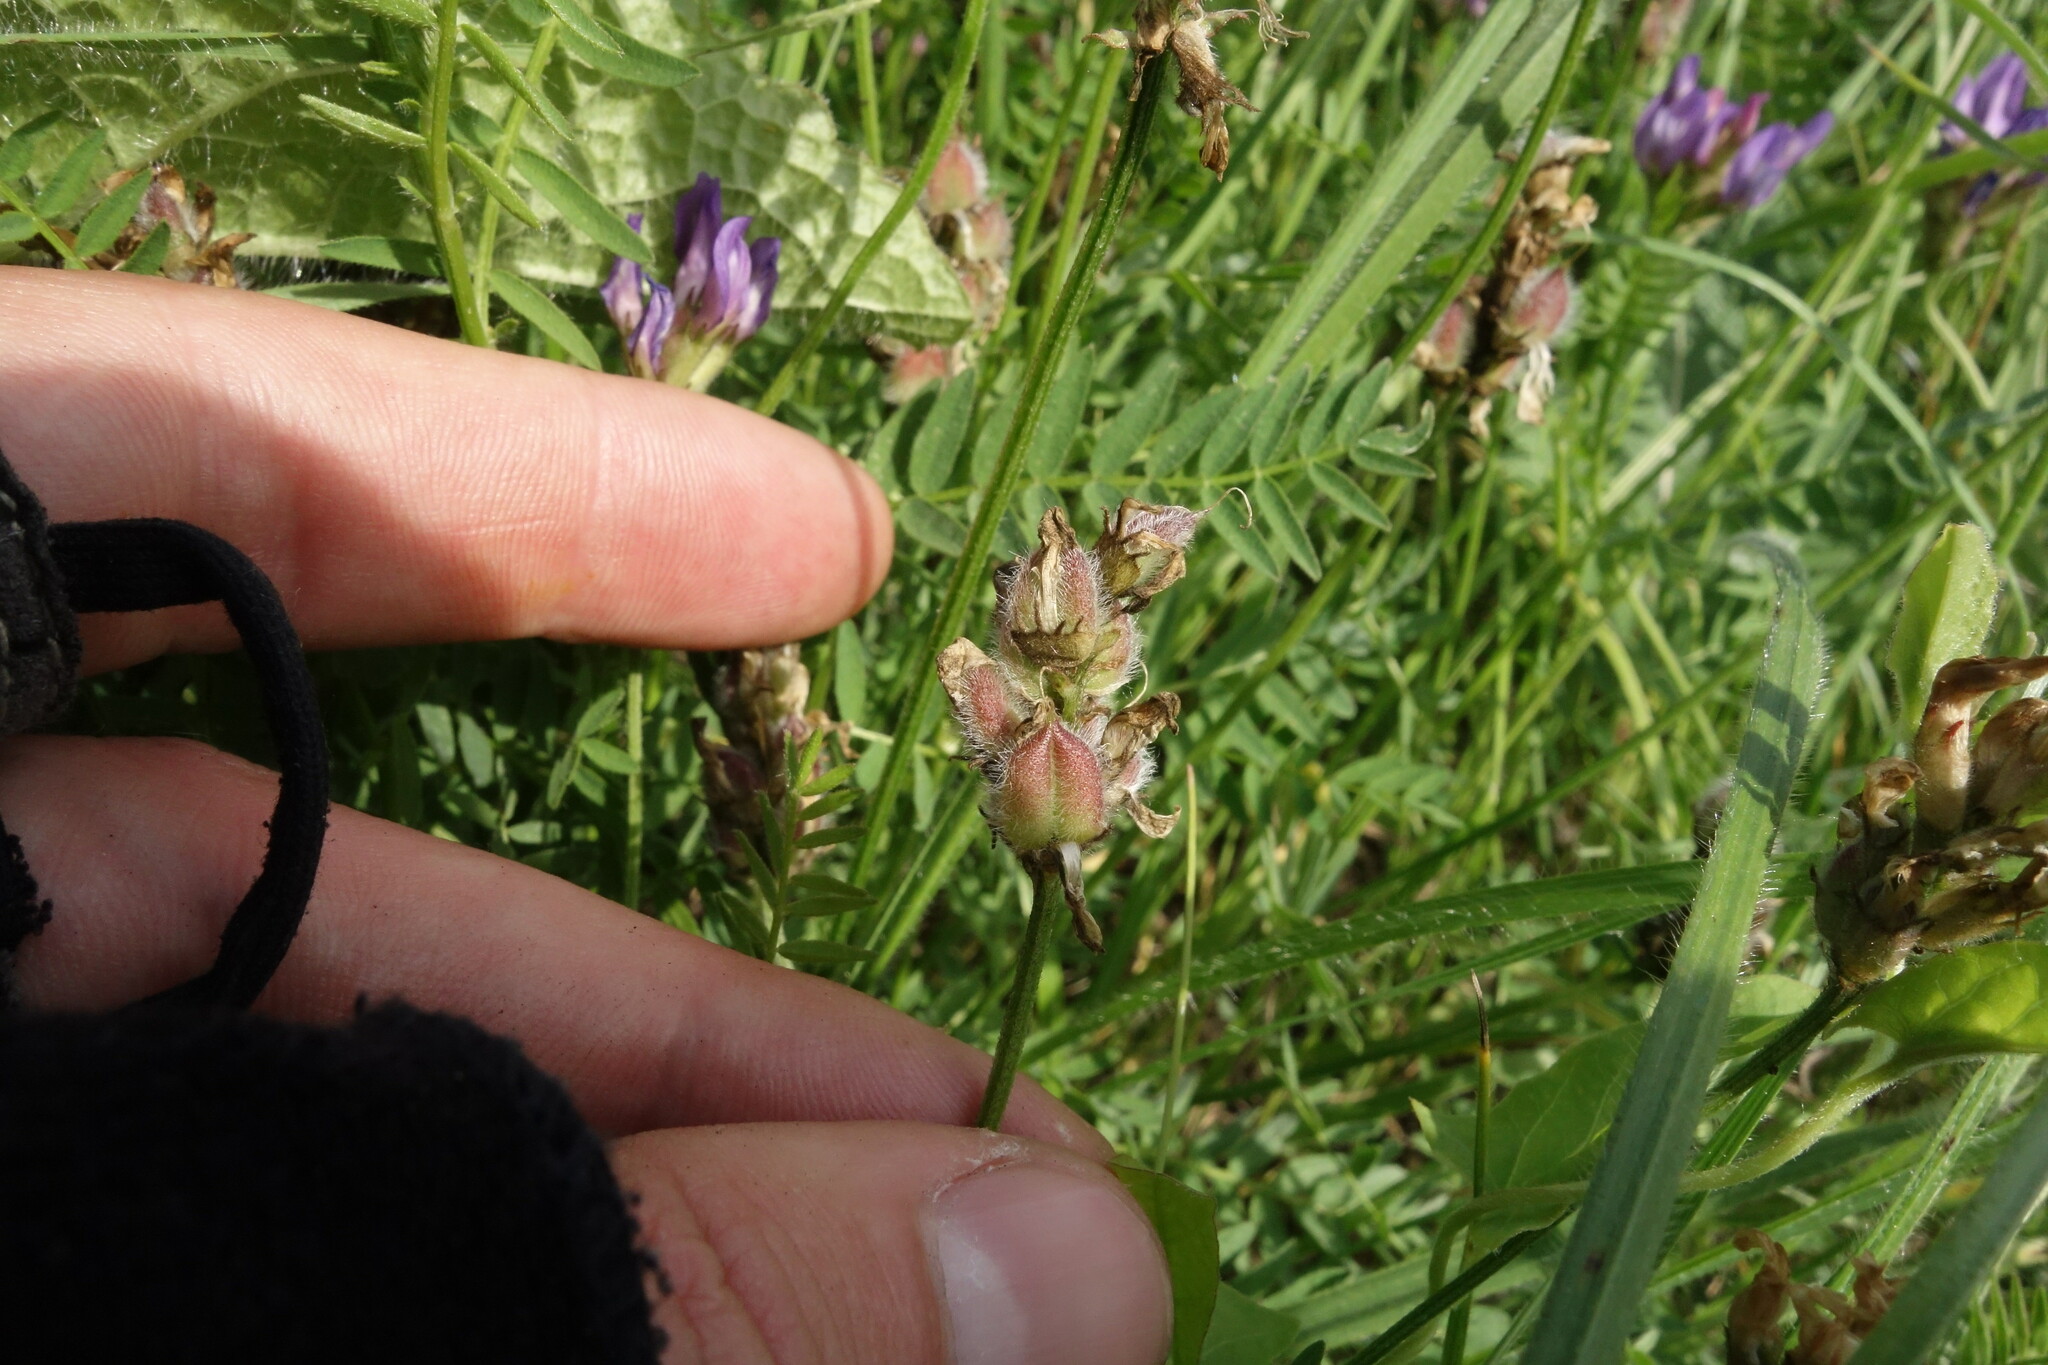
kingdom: Plantae
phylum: Tracheophyta
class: Magnoliopsida
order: Fabales
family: Fabaceae
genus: Astragalus
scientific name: Astragalus danicus
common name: Purple milk-vetch
